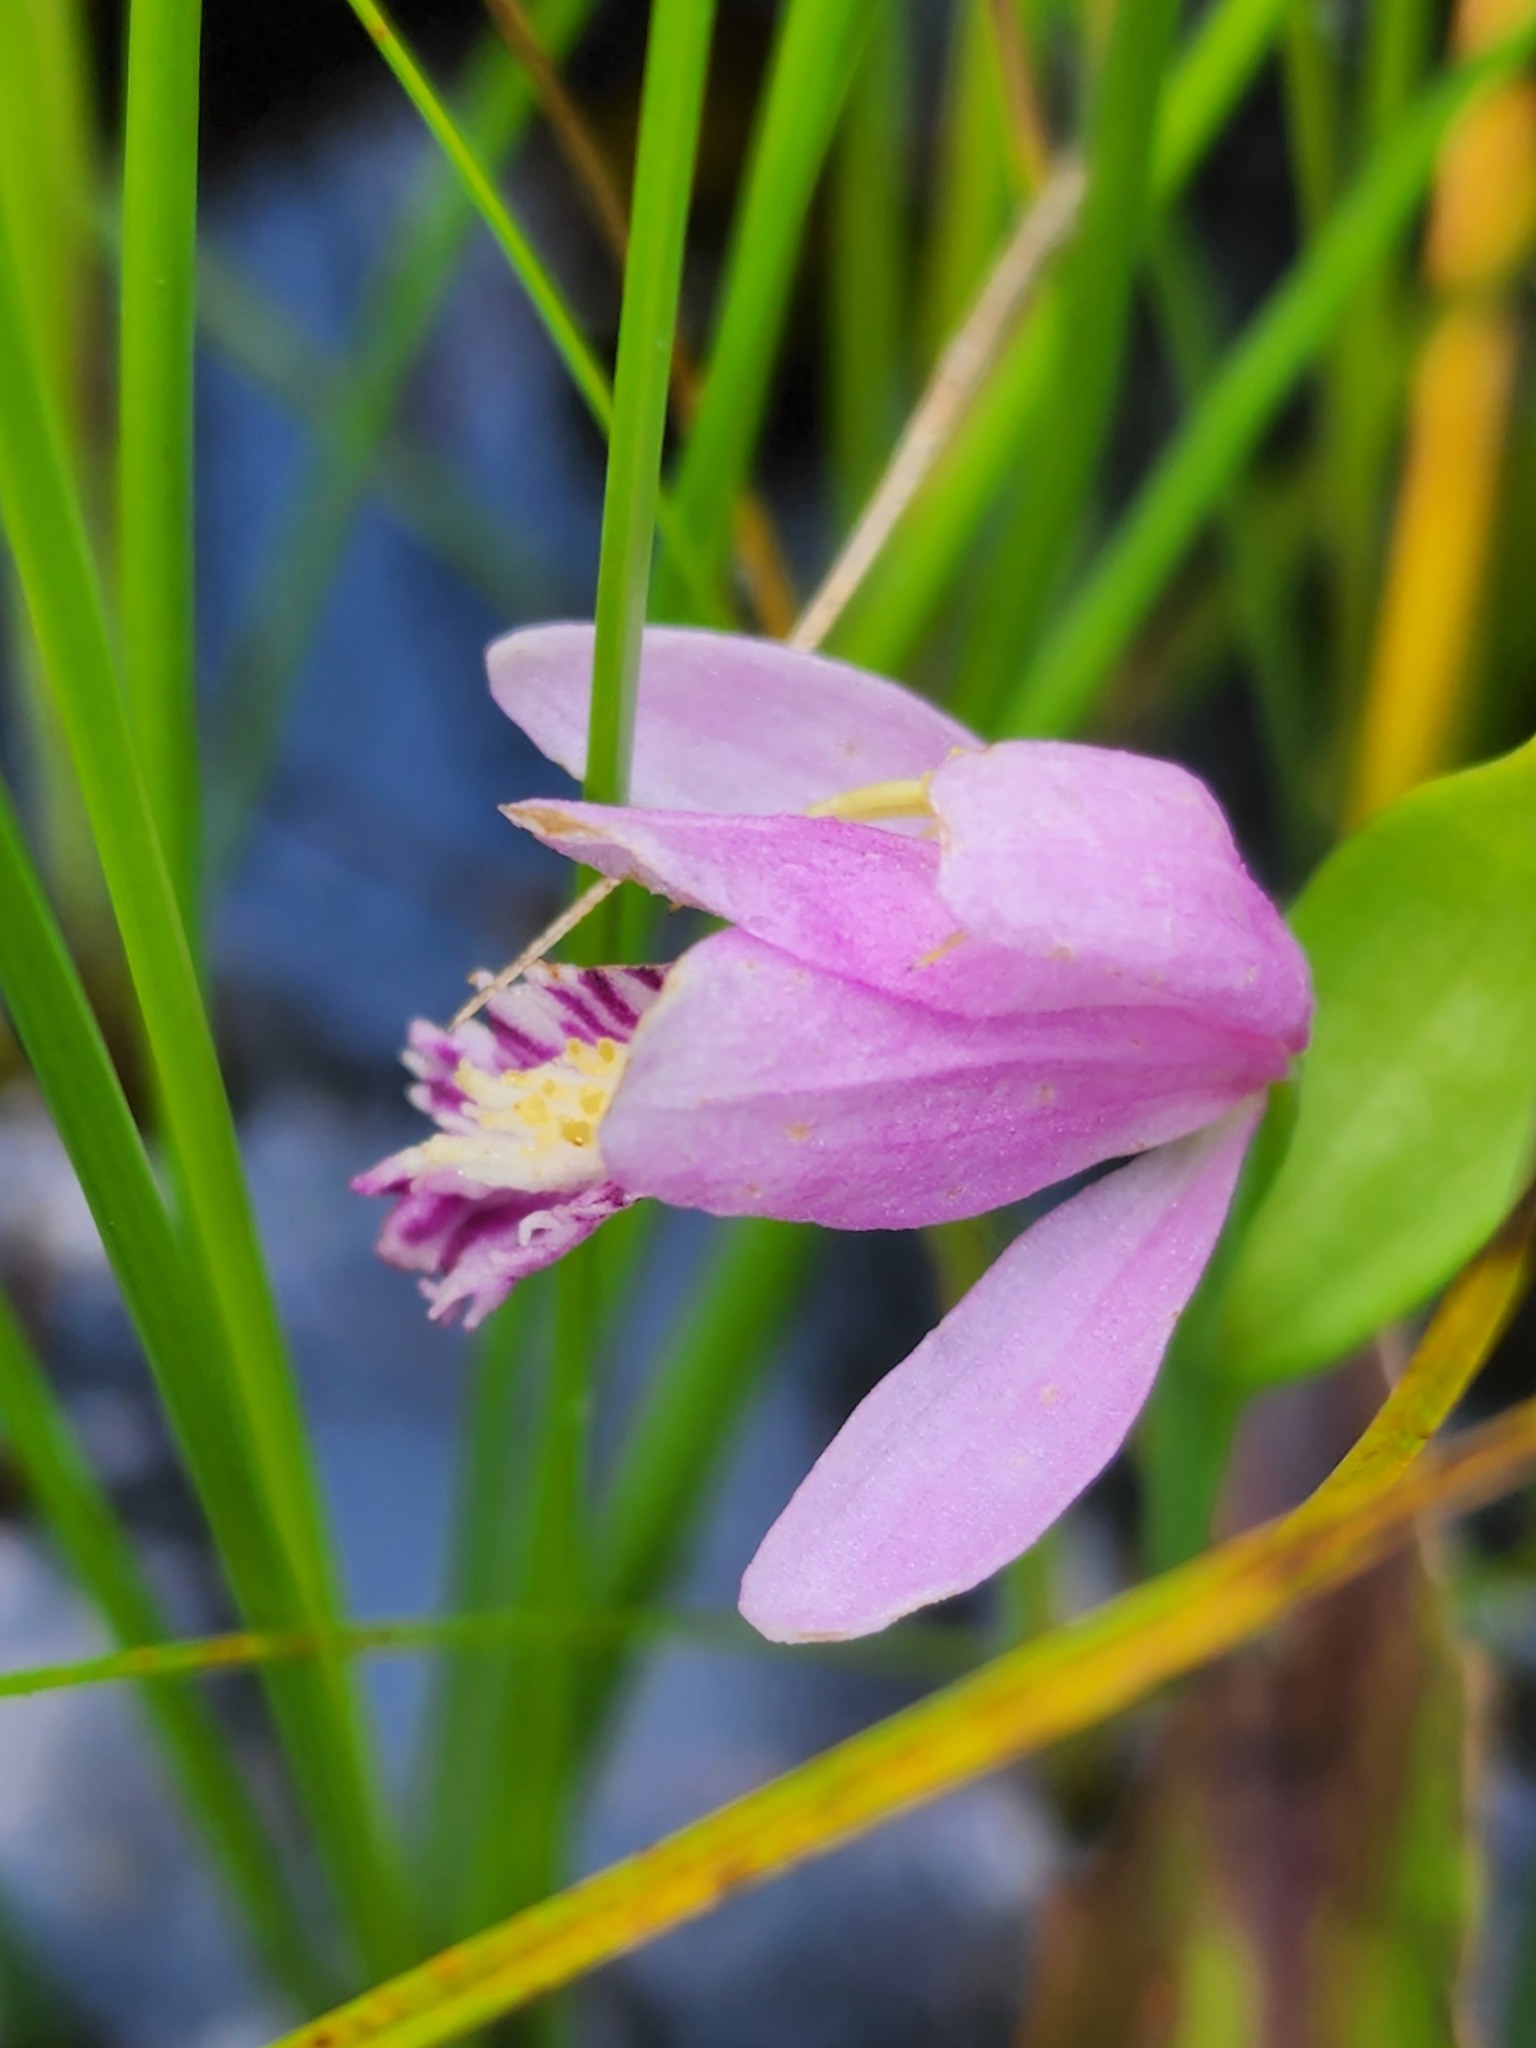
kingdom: Plantae
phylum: Tracheophyta
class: Liliopsida
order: Asparagales
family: Orchidaceae
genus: Pogonia
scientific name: Pogonia ophioglossoides
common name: Rose pogonia
